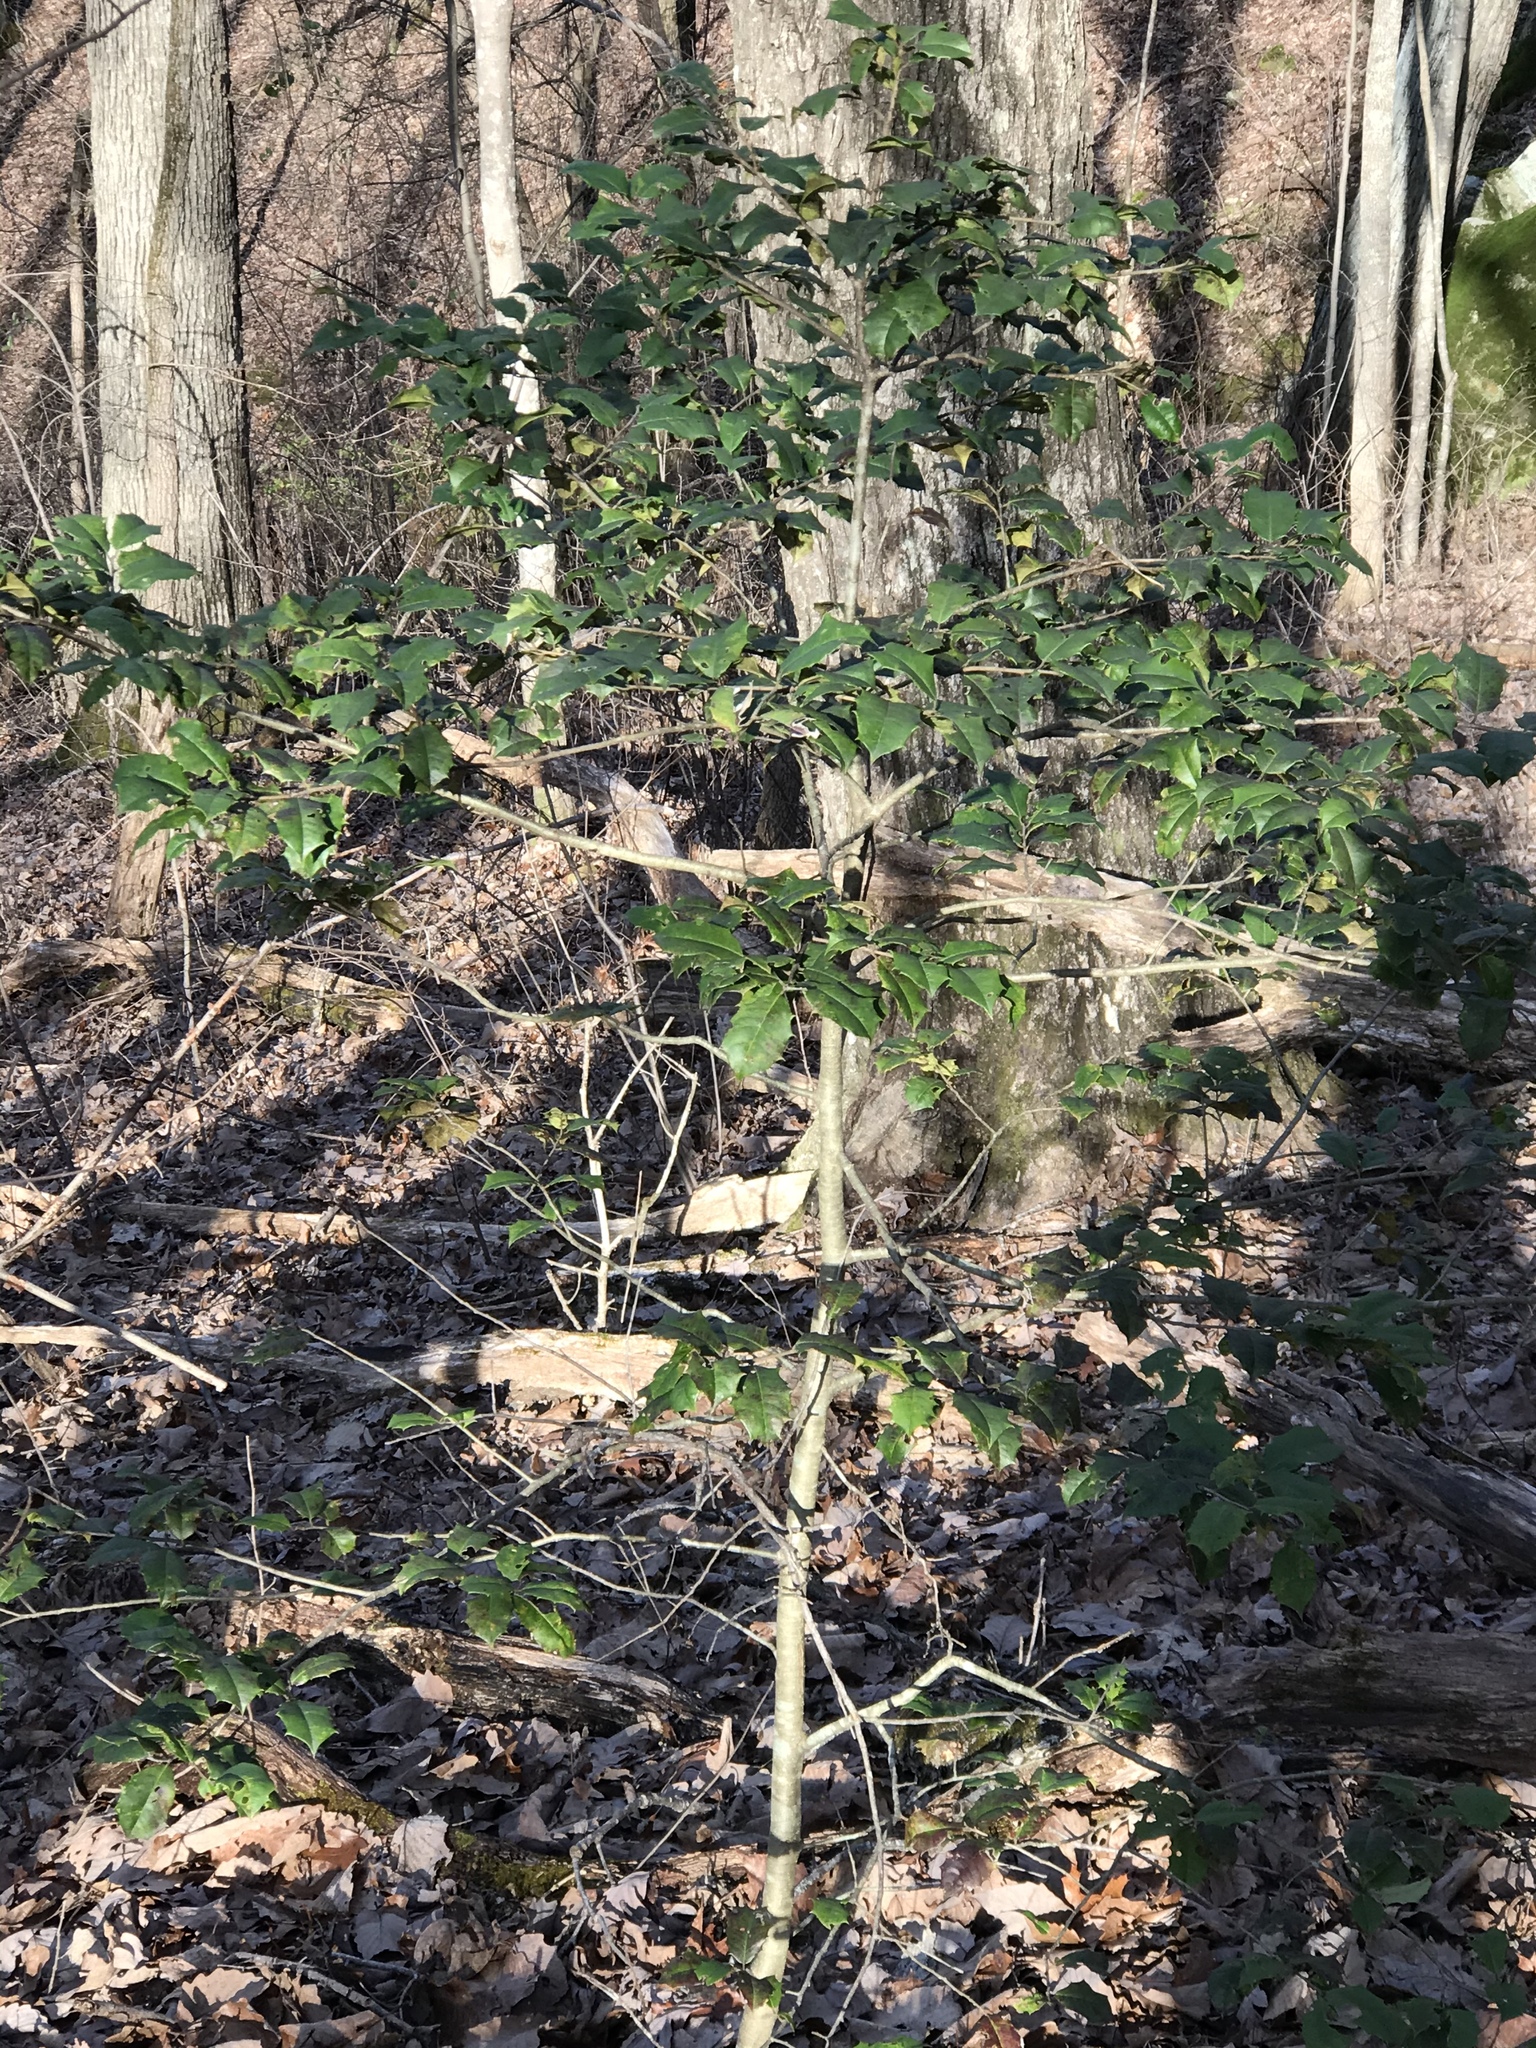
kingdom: Plantae
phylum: Tracheophyta
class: Magnoliopsida
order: Aquifoliales
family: Aquifoliaceae
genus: Ilex
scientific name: Ilex opaca
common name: American holly
